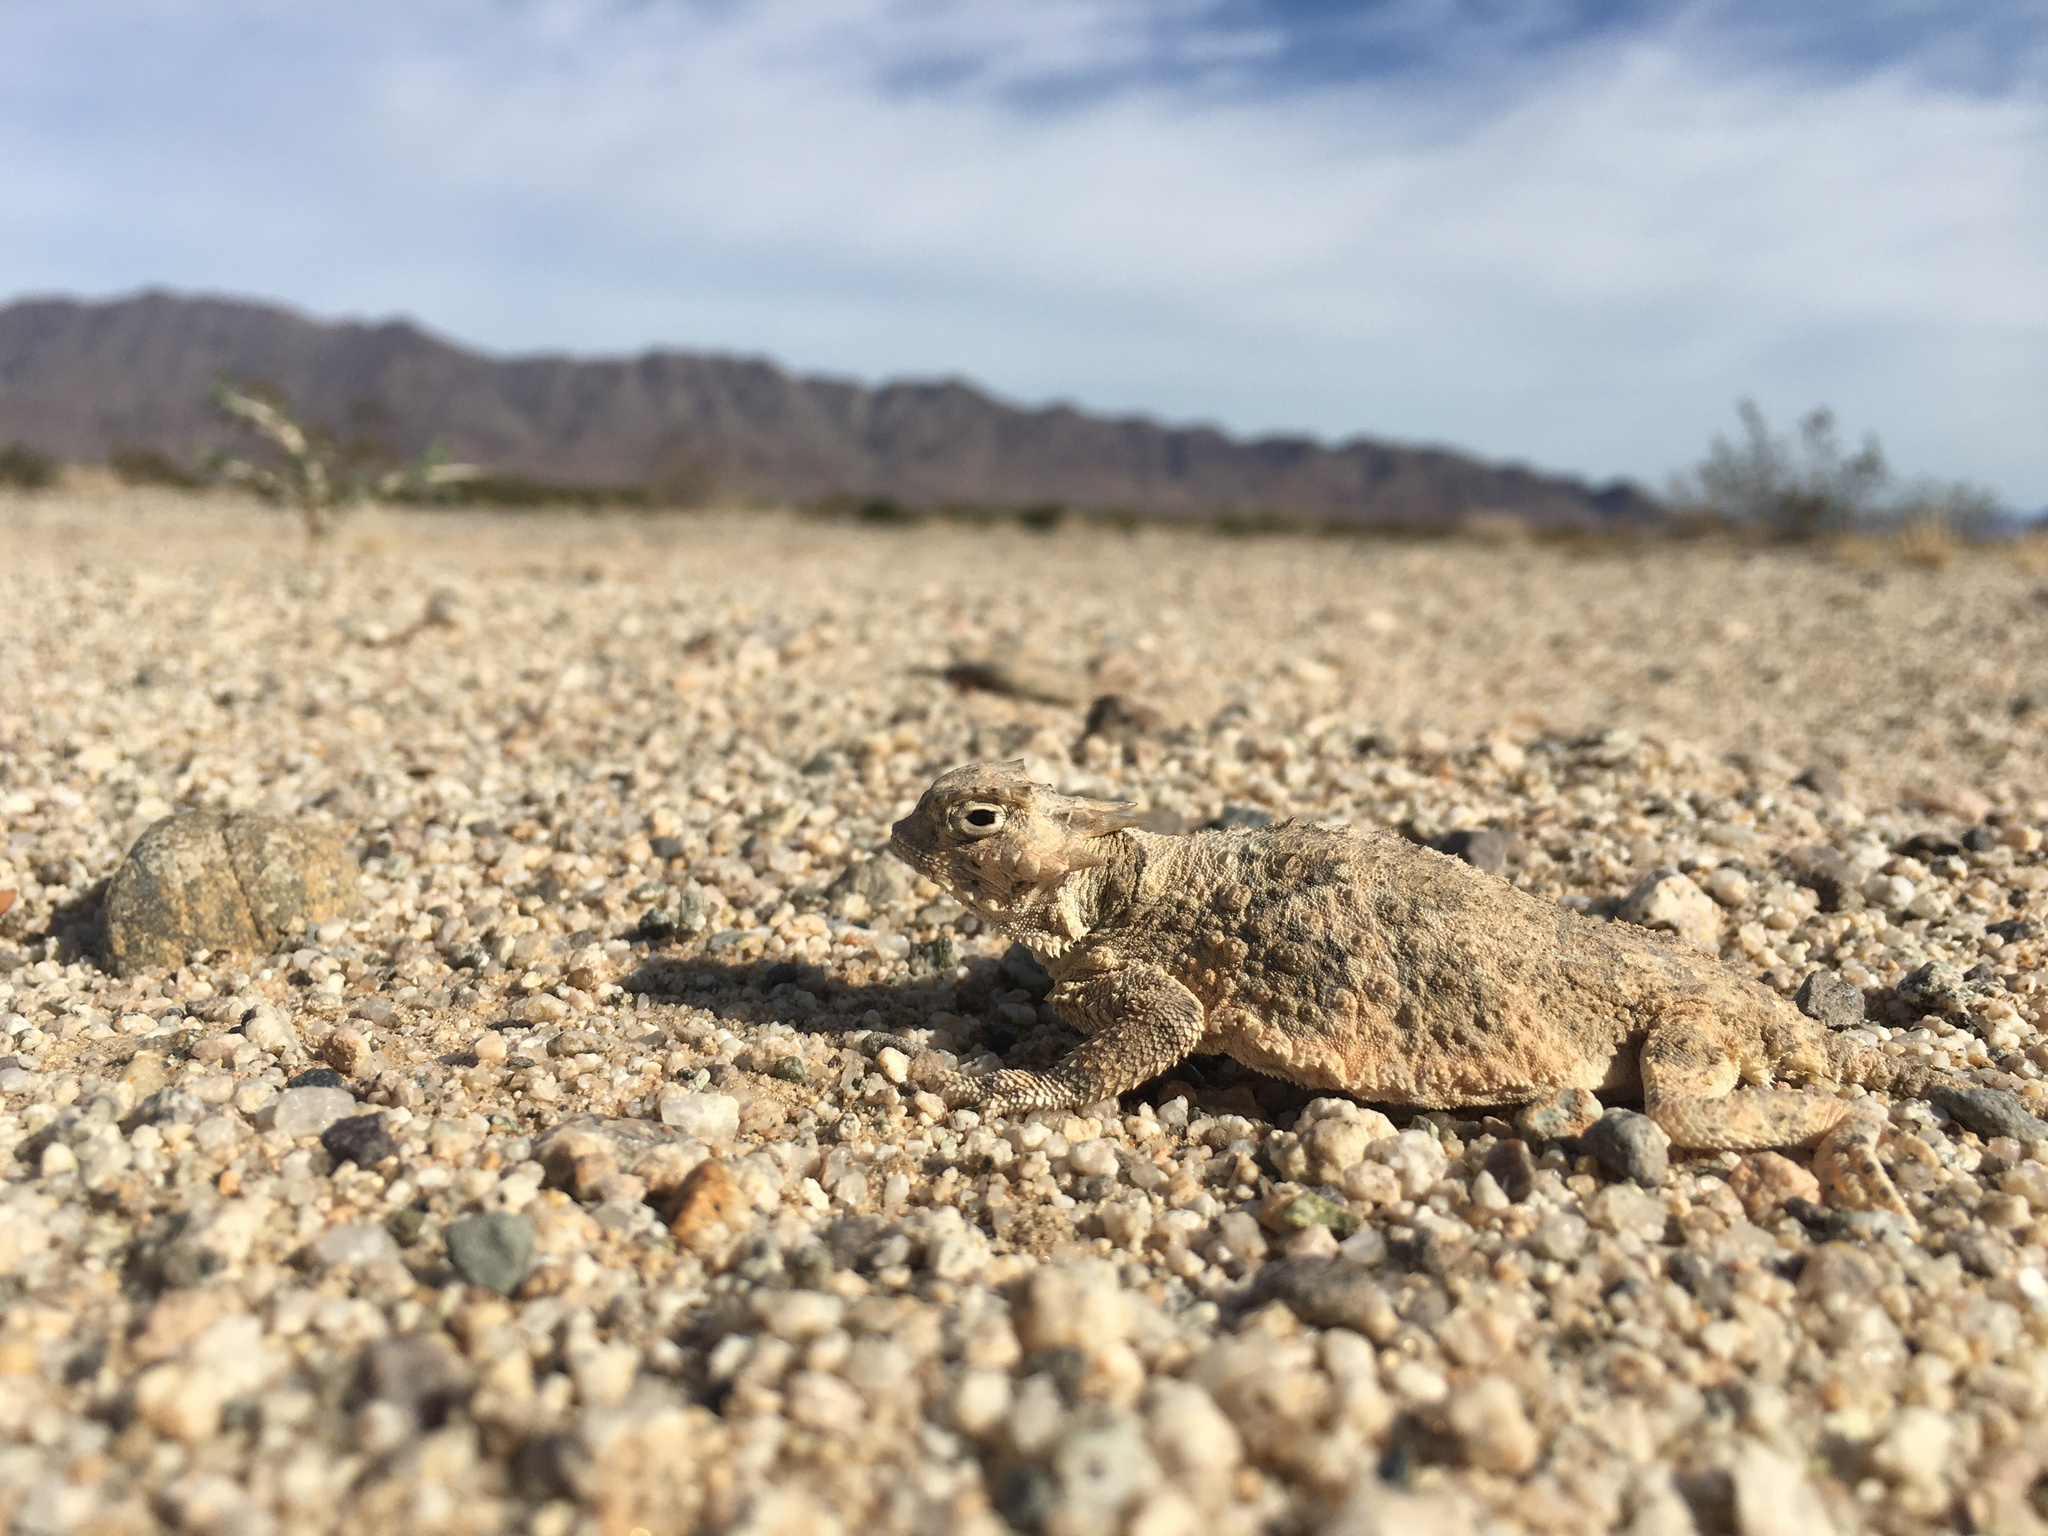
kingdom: Animalia
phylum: Chordata
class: Squamata
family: Phrynosomatidae
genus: Phrynosoma
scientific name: Phrynosoma platyrhinos
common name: Desert horned lizard
